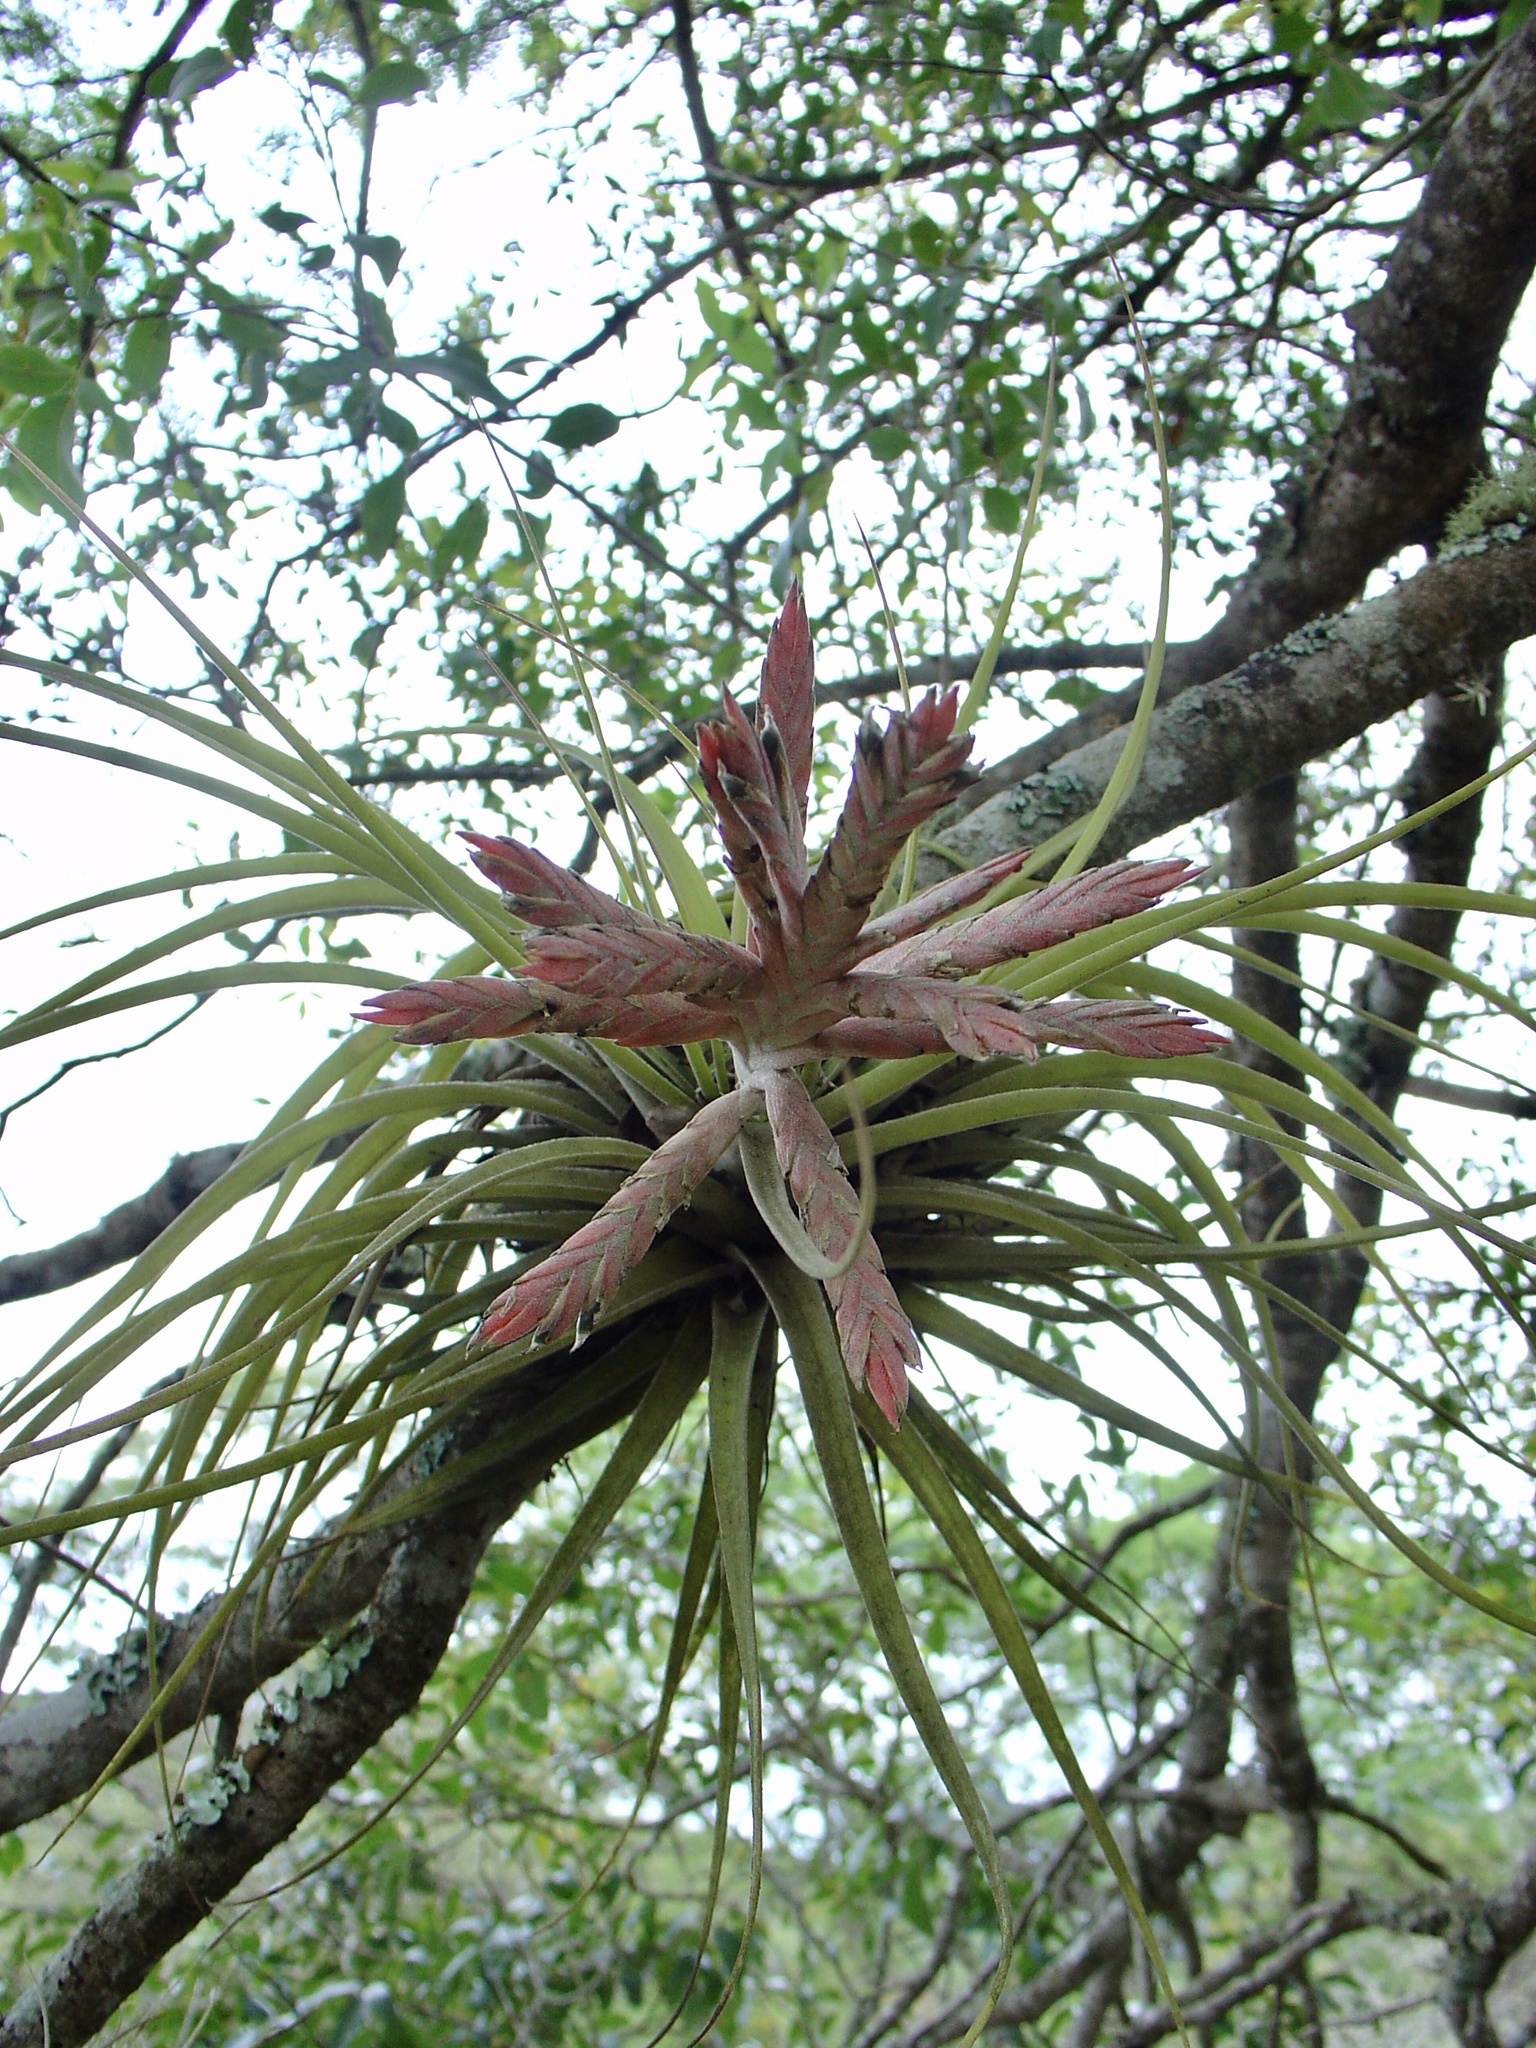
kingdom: Plantae
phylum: Tracheophyta
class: Liliopsida
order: Poales
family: Bromeliaceae
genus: Tillandsia
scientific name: Tillandsia didisticha
